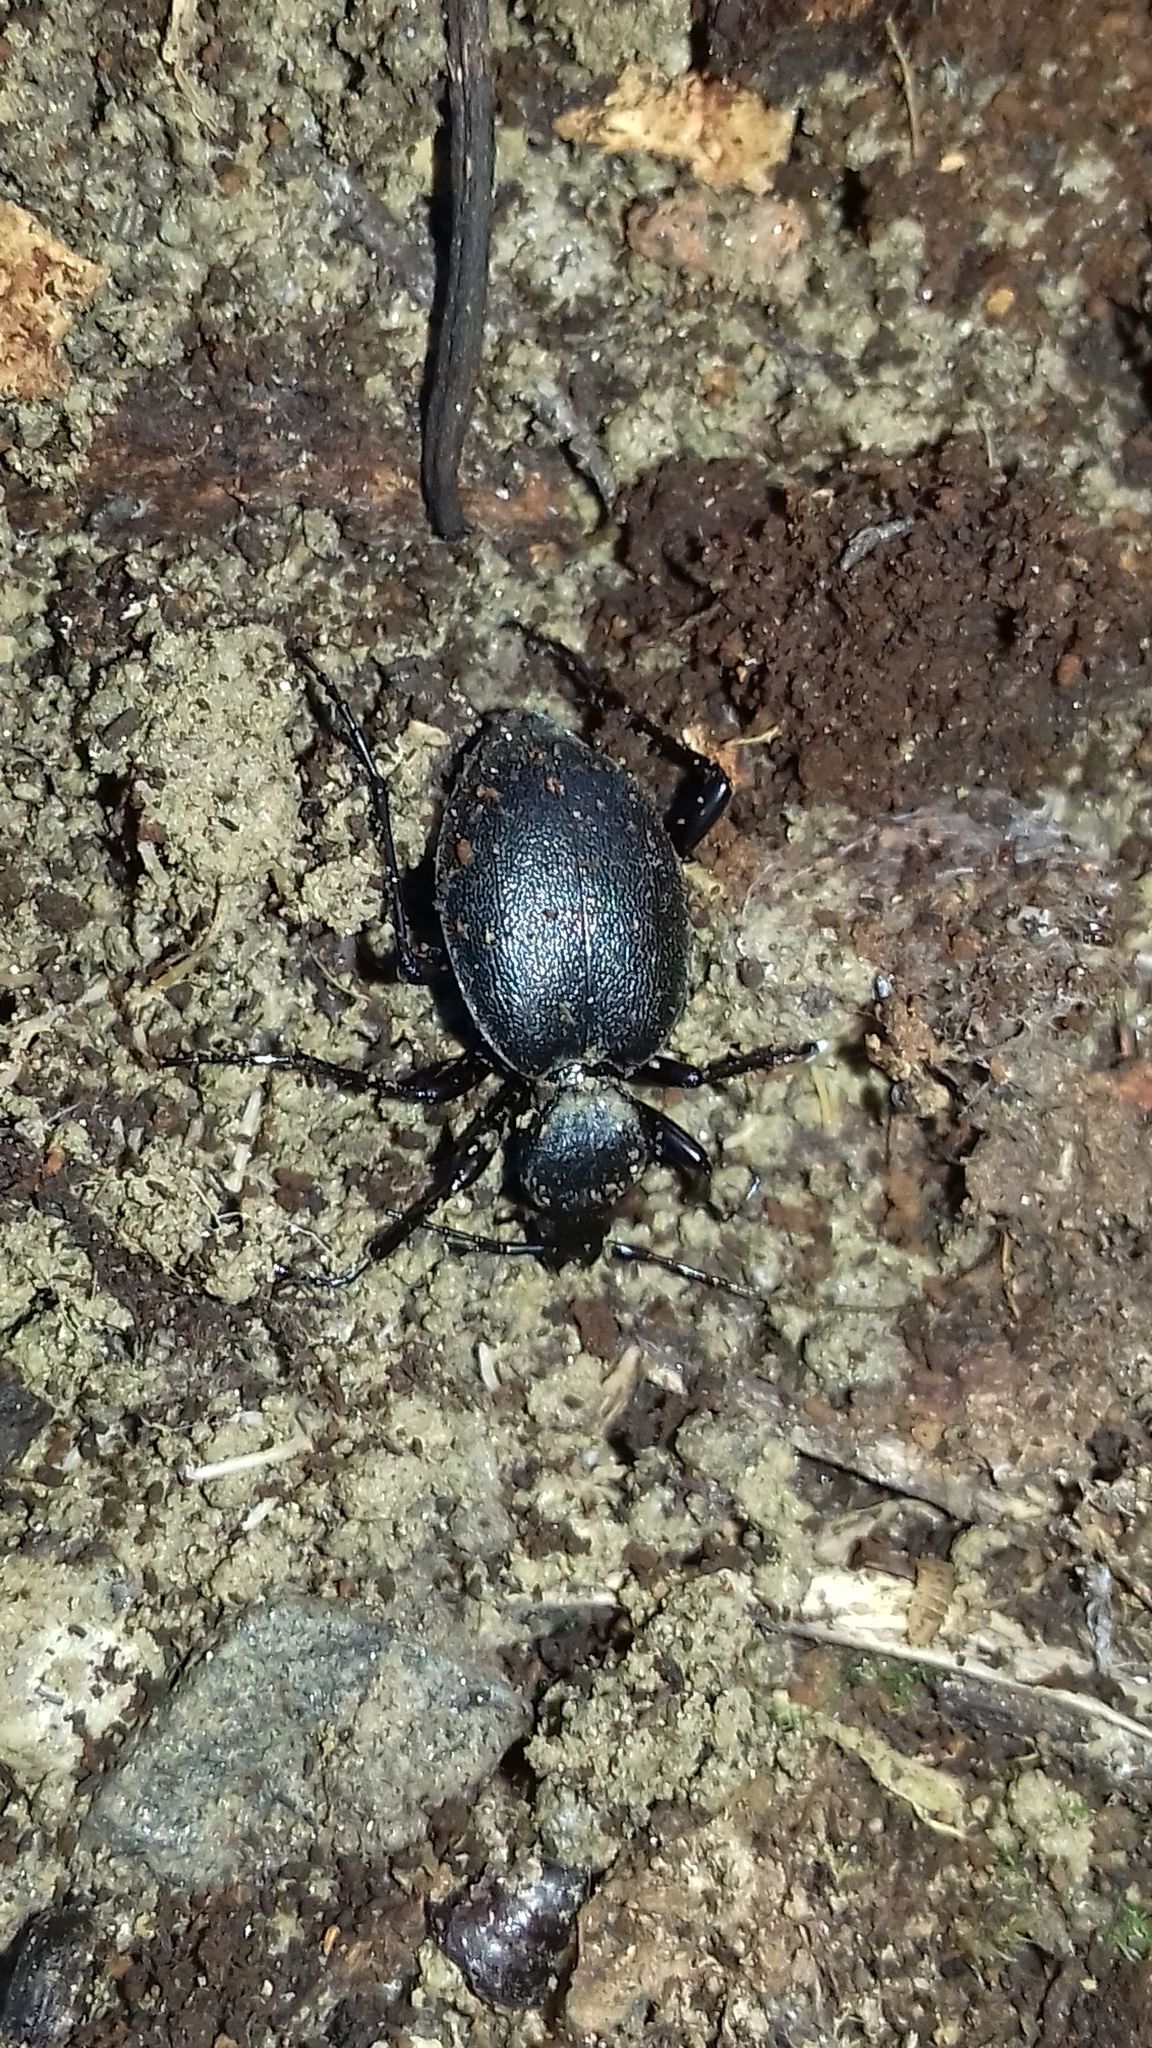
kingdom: Animalia
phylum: Arthropoda
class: Insecta
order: Coleoptera
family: Carabidae
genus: Cychrus
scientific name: Cychrus caraboides
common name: Snail hunter
